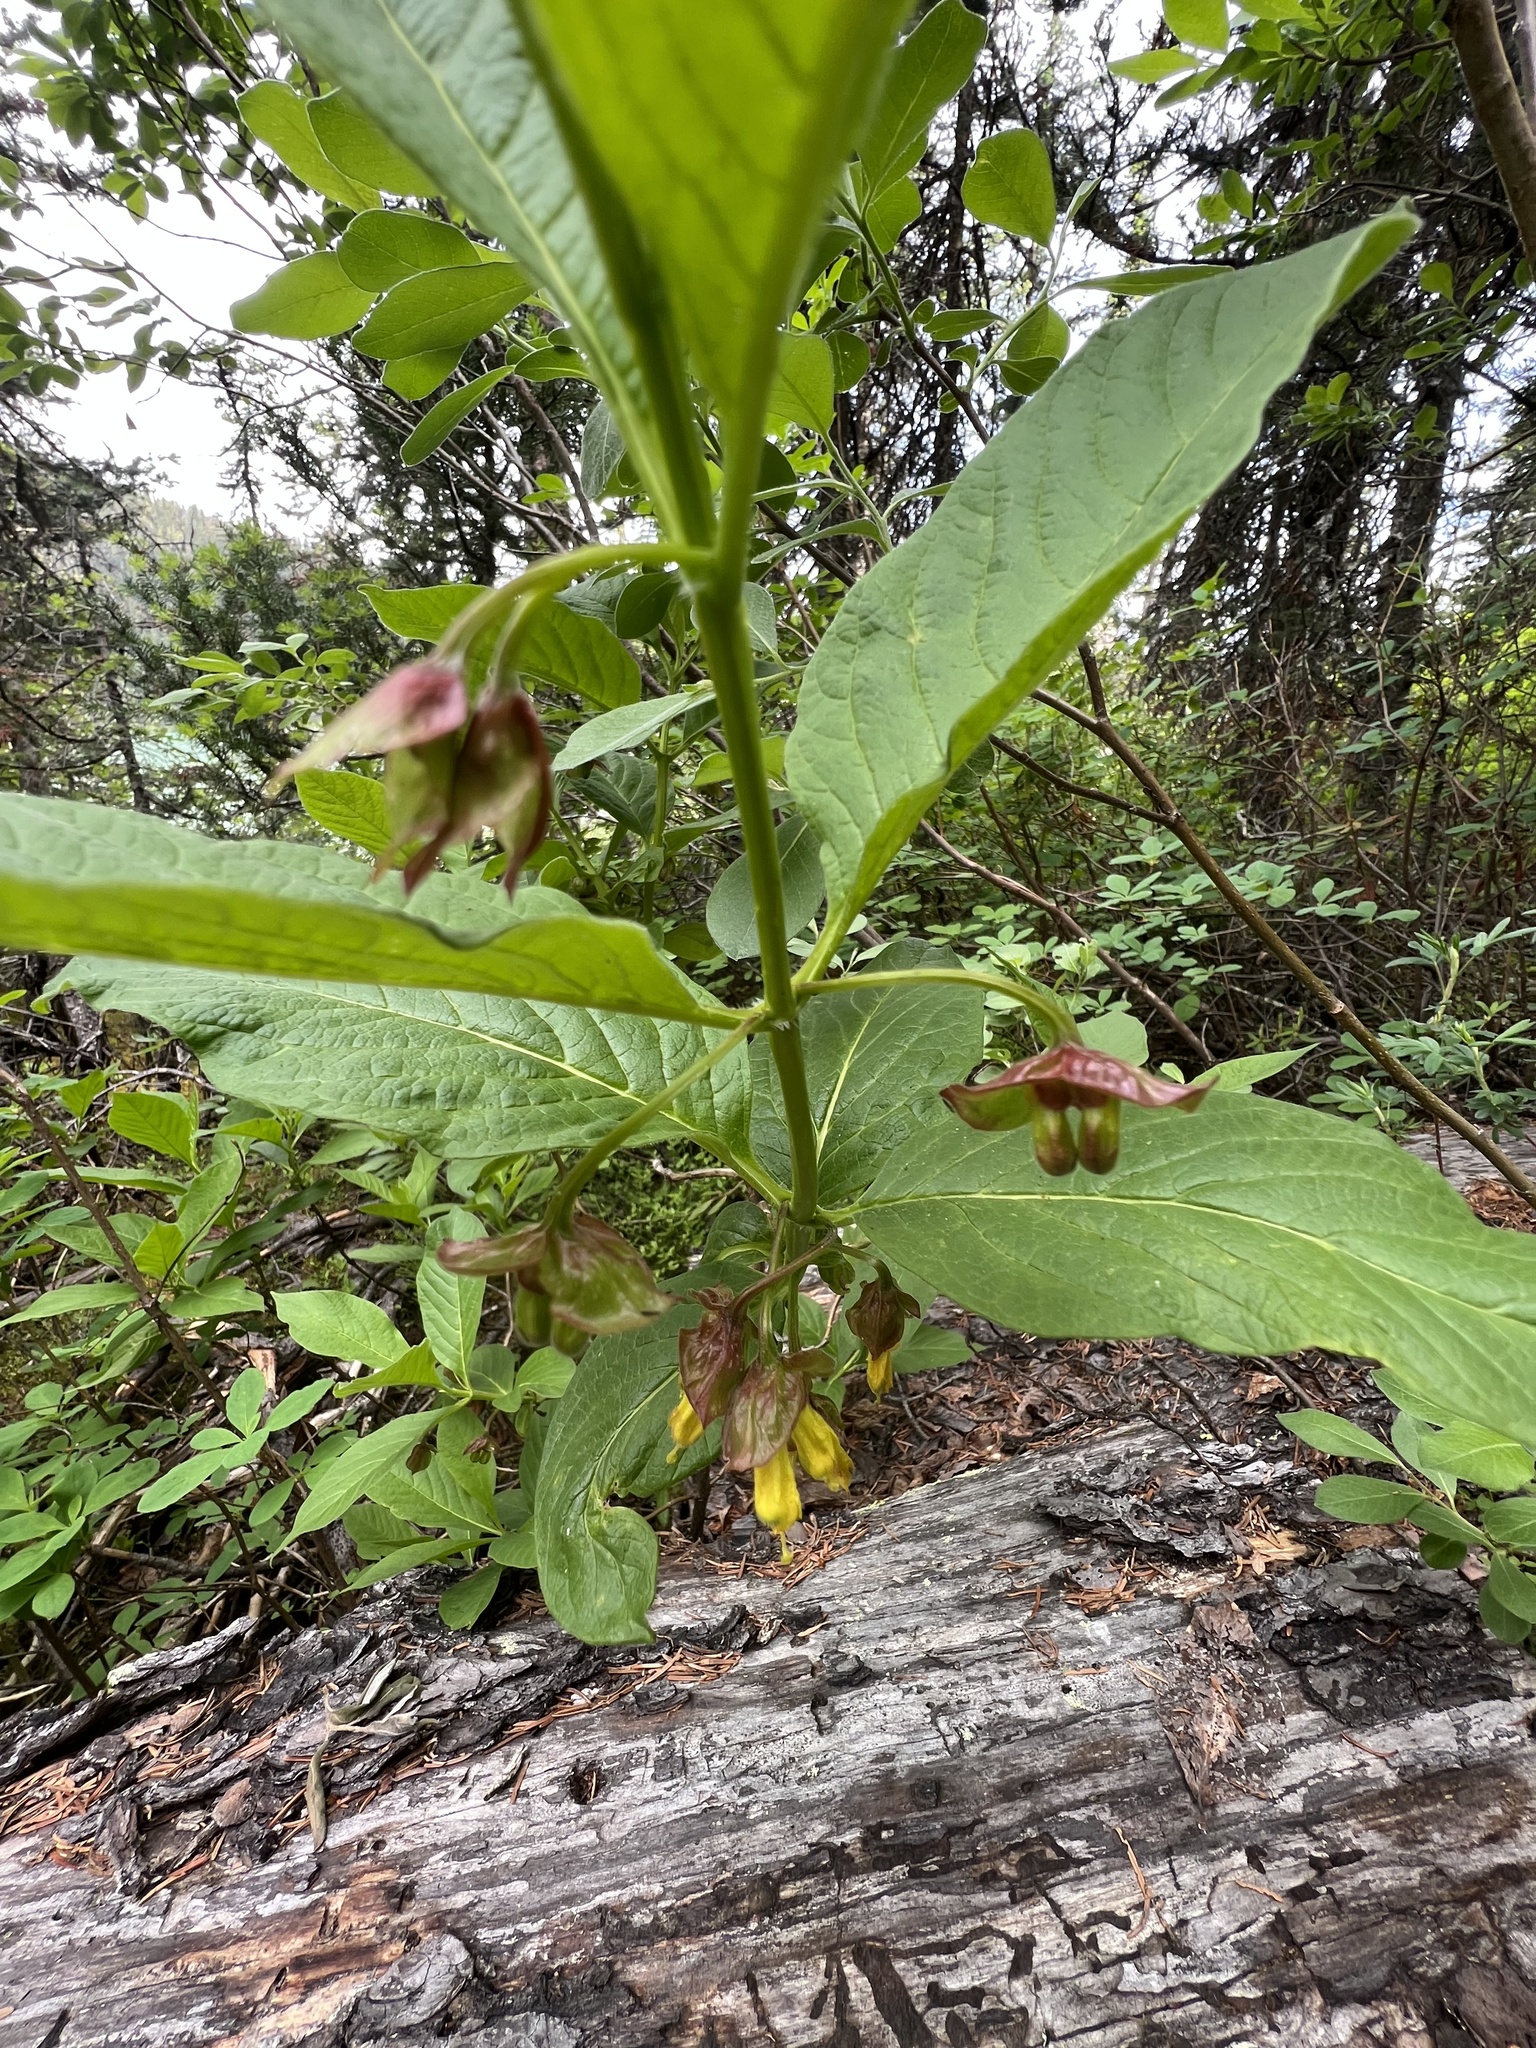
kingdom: Plantae
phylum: Tracheophyta
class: Magnoliopsida
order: Dipsacales
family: Caprifoliaceae
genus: Lonicera
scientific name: Lonicera involucrata
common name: Californian honeysuckle
